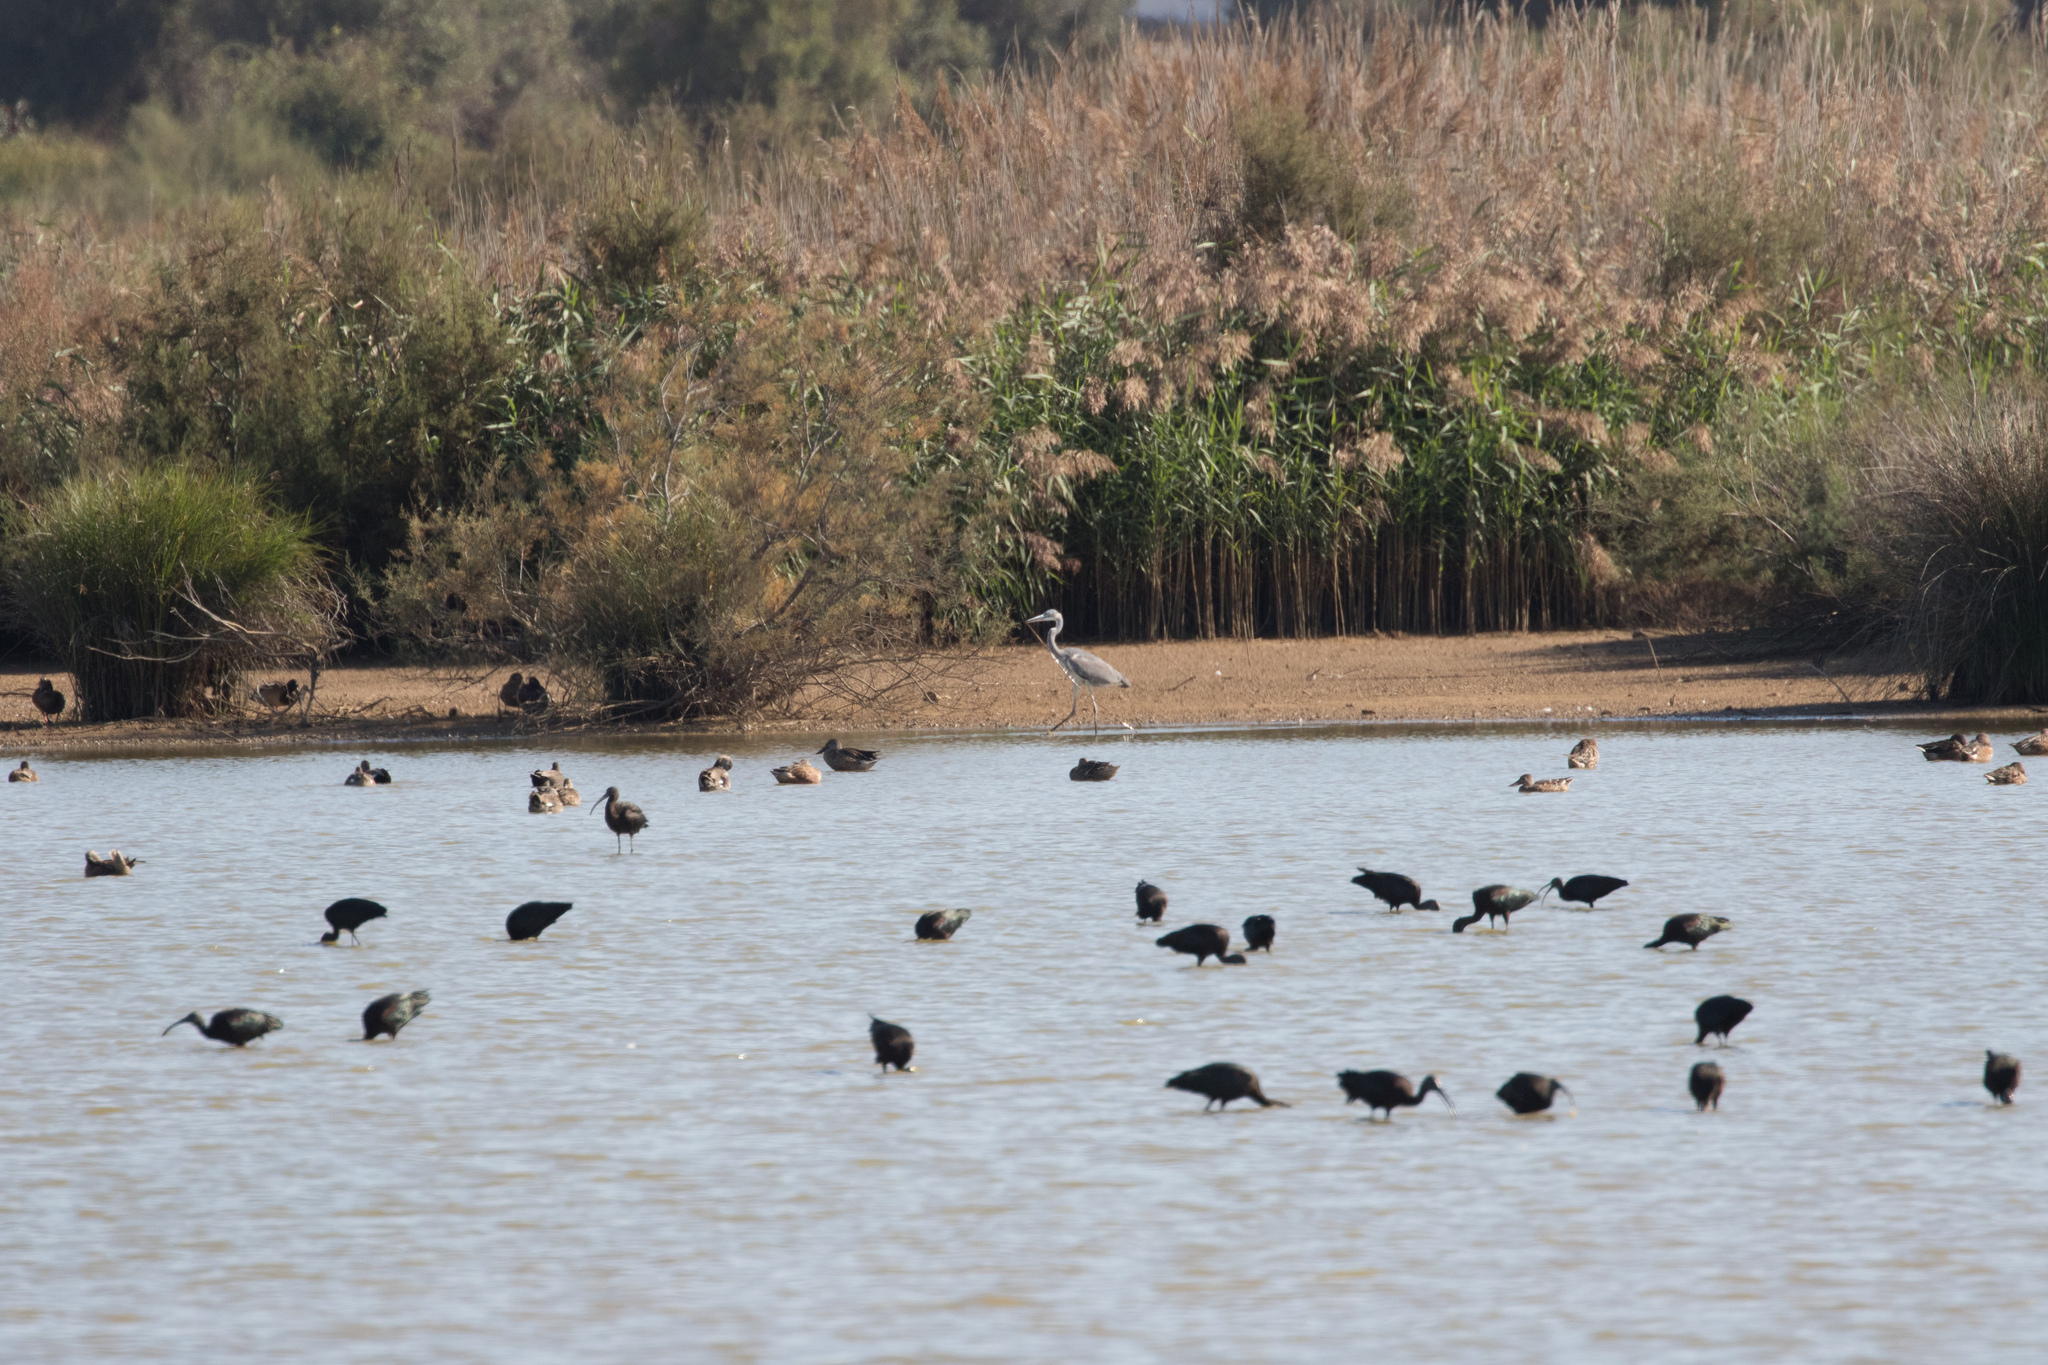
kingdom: Animalia
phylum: Chordata
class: Aves
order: Pelecaniformes
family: Ardeidae
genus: Ardea
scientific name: Ardea cinerea
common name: Grey heron
